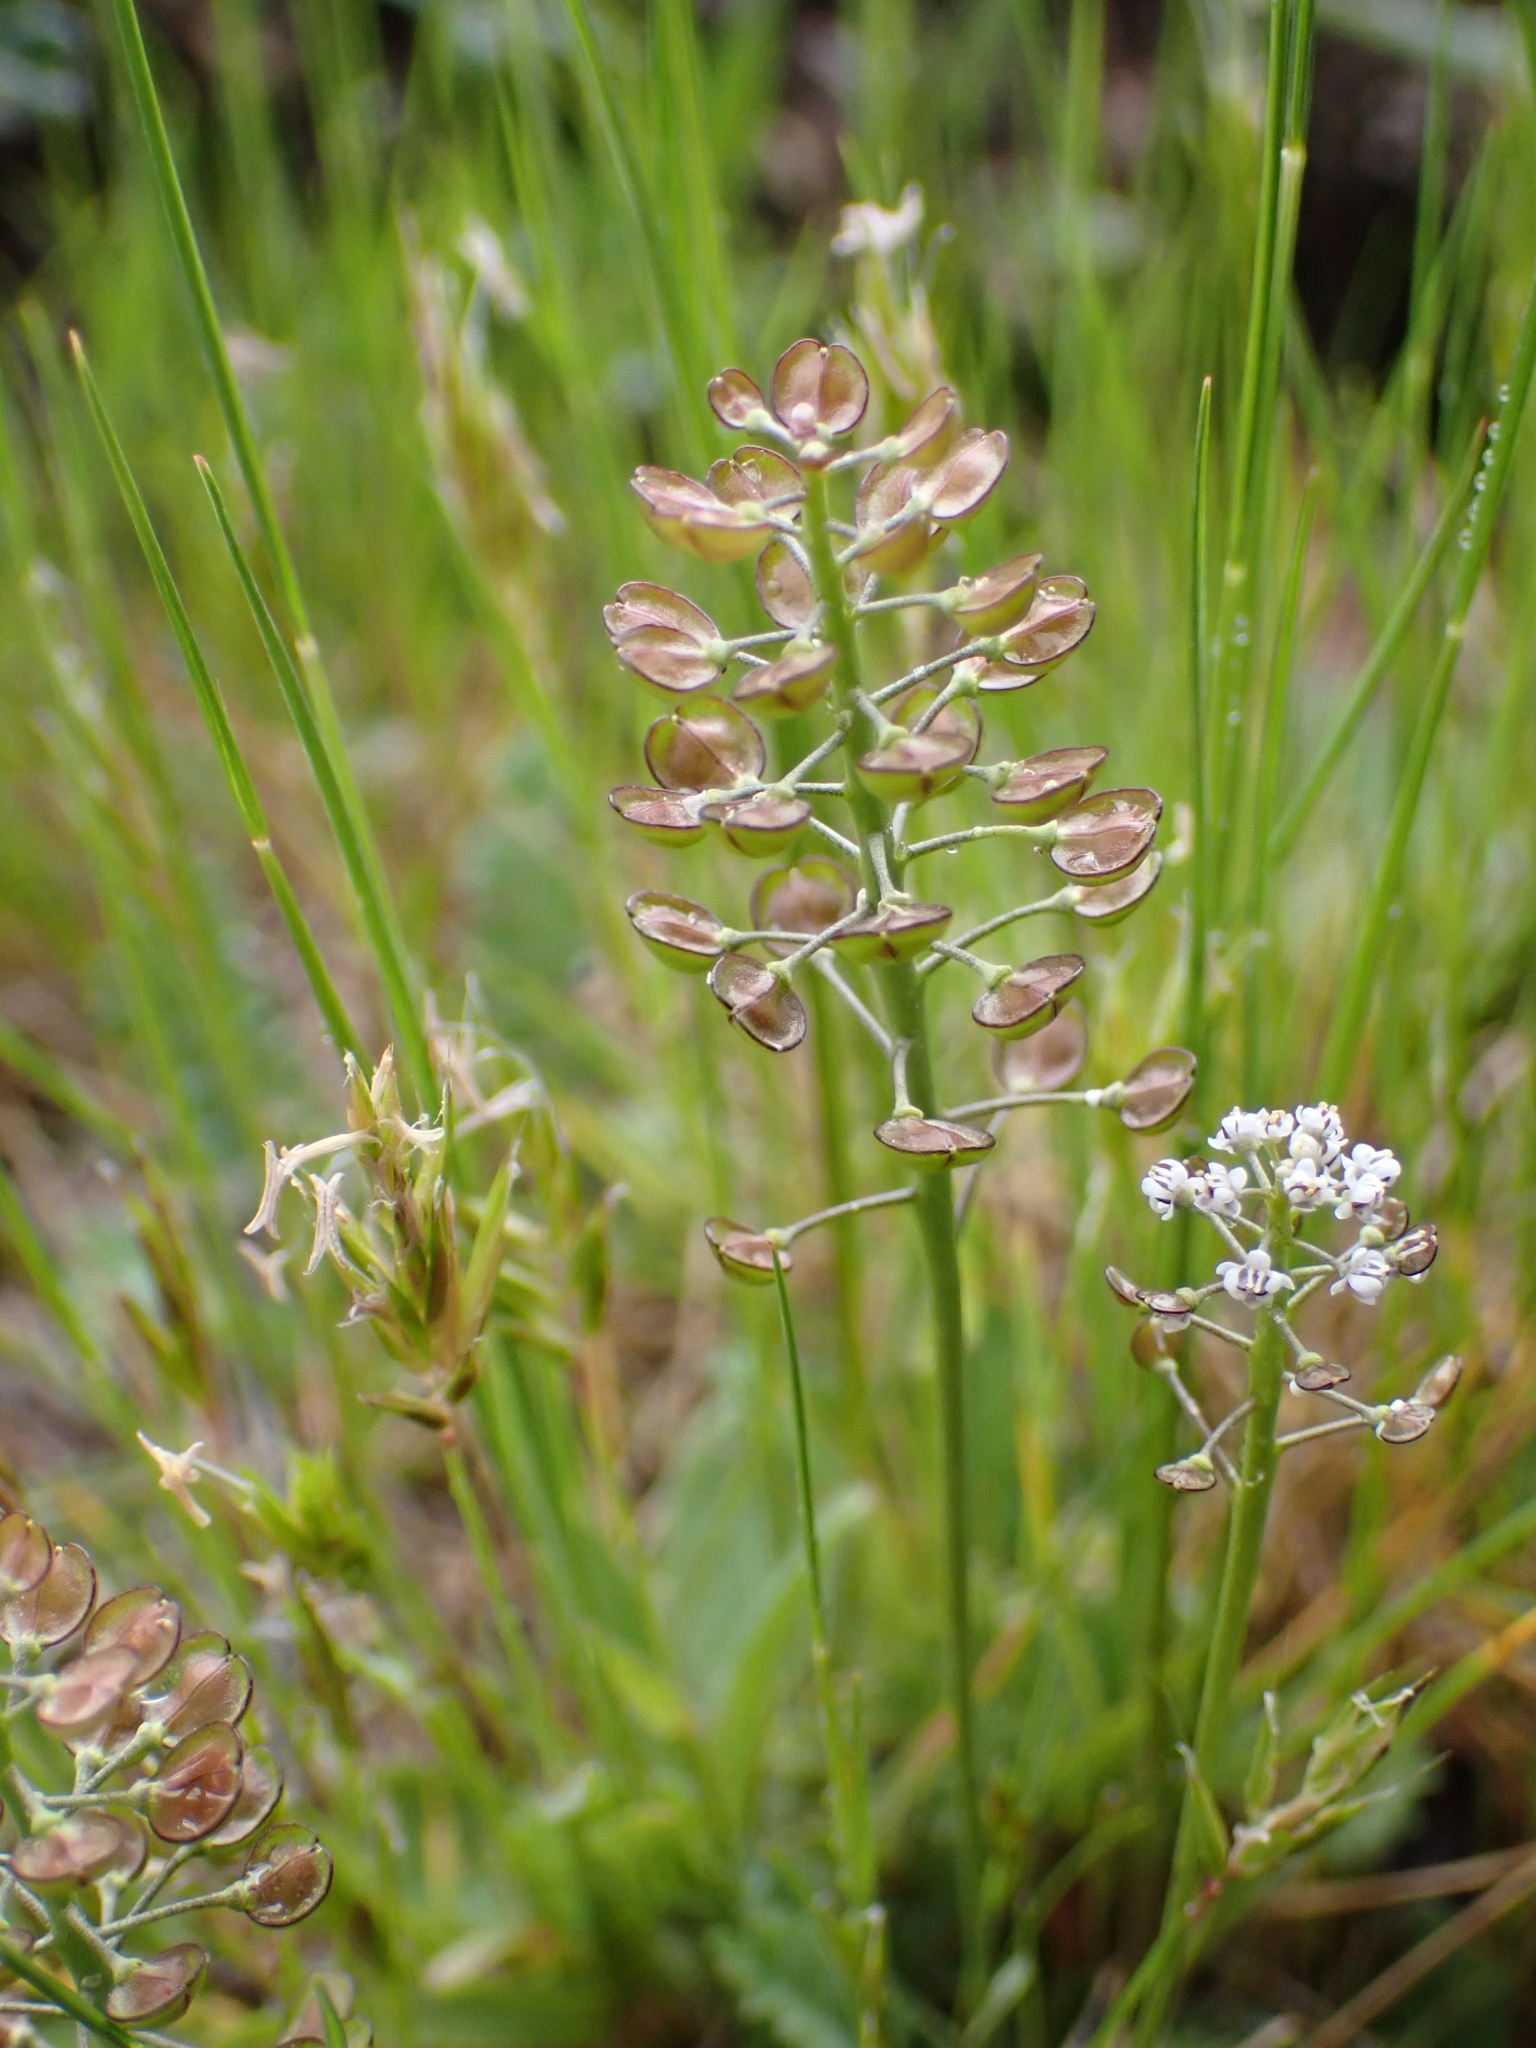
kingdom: Plantae
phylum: Tracheophyta
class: Magnoliopsida
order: Brassicales
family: Brassicaceae
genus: Teesdalia
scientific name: Teesdalia coronopifolia
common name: Lesser shepherdscress
